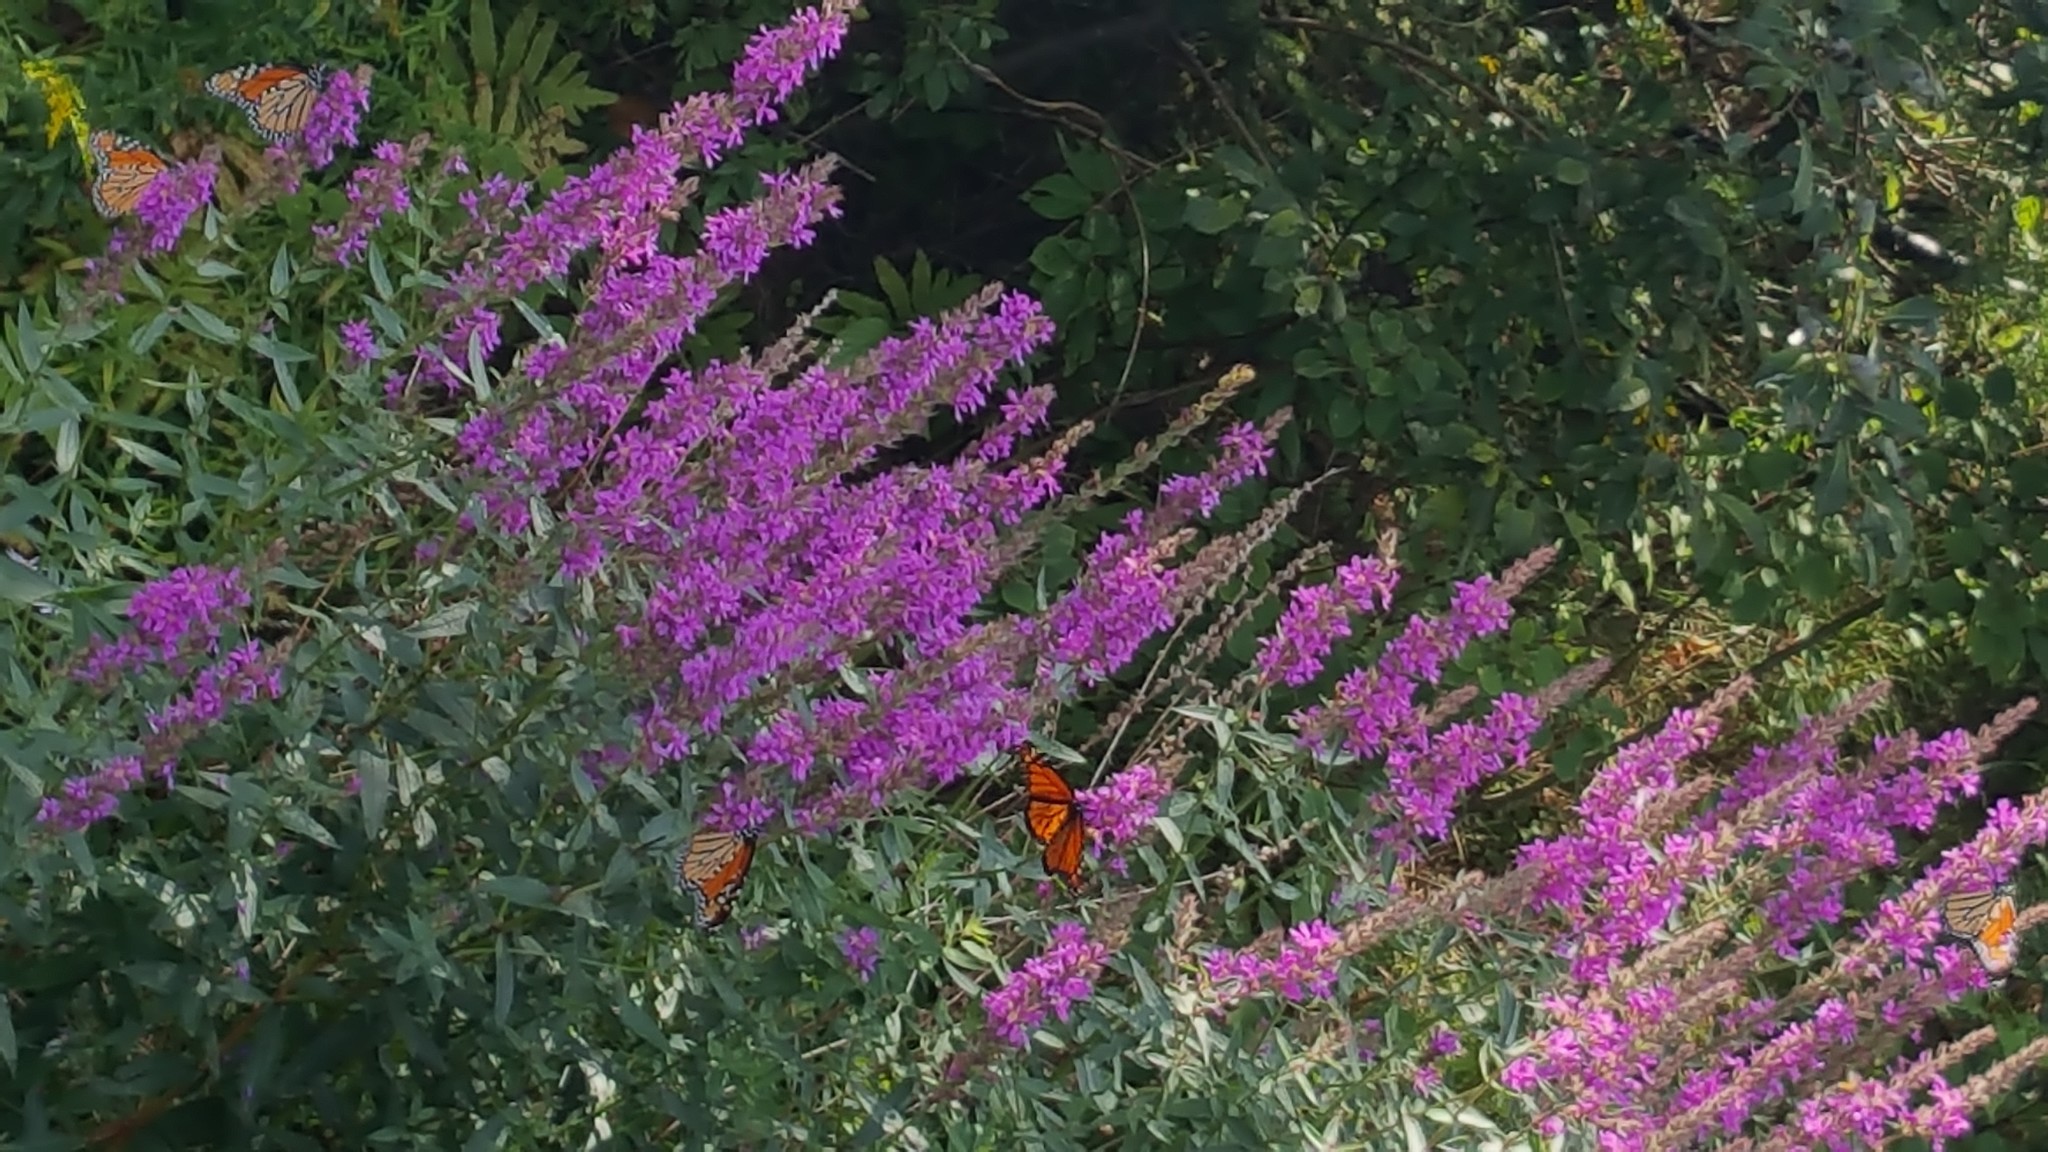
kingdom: Animalia
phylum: Arthropoda
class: Insecta
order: Lepidoptera
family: Nymphalidae
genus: Danaus
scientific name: Danaus plexippus
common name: Monarch
